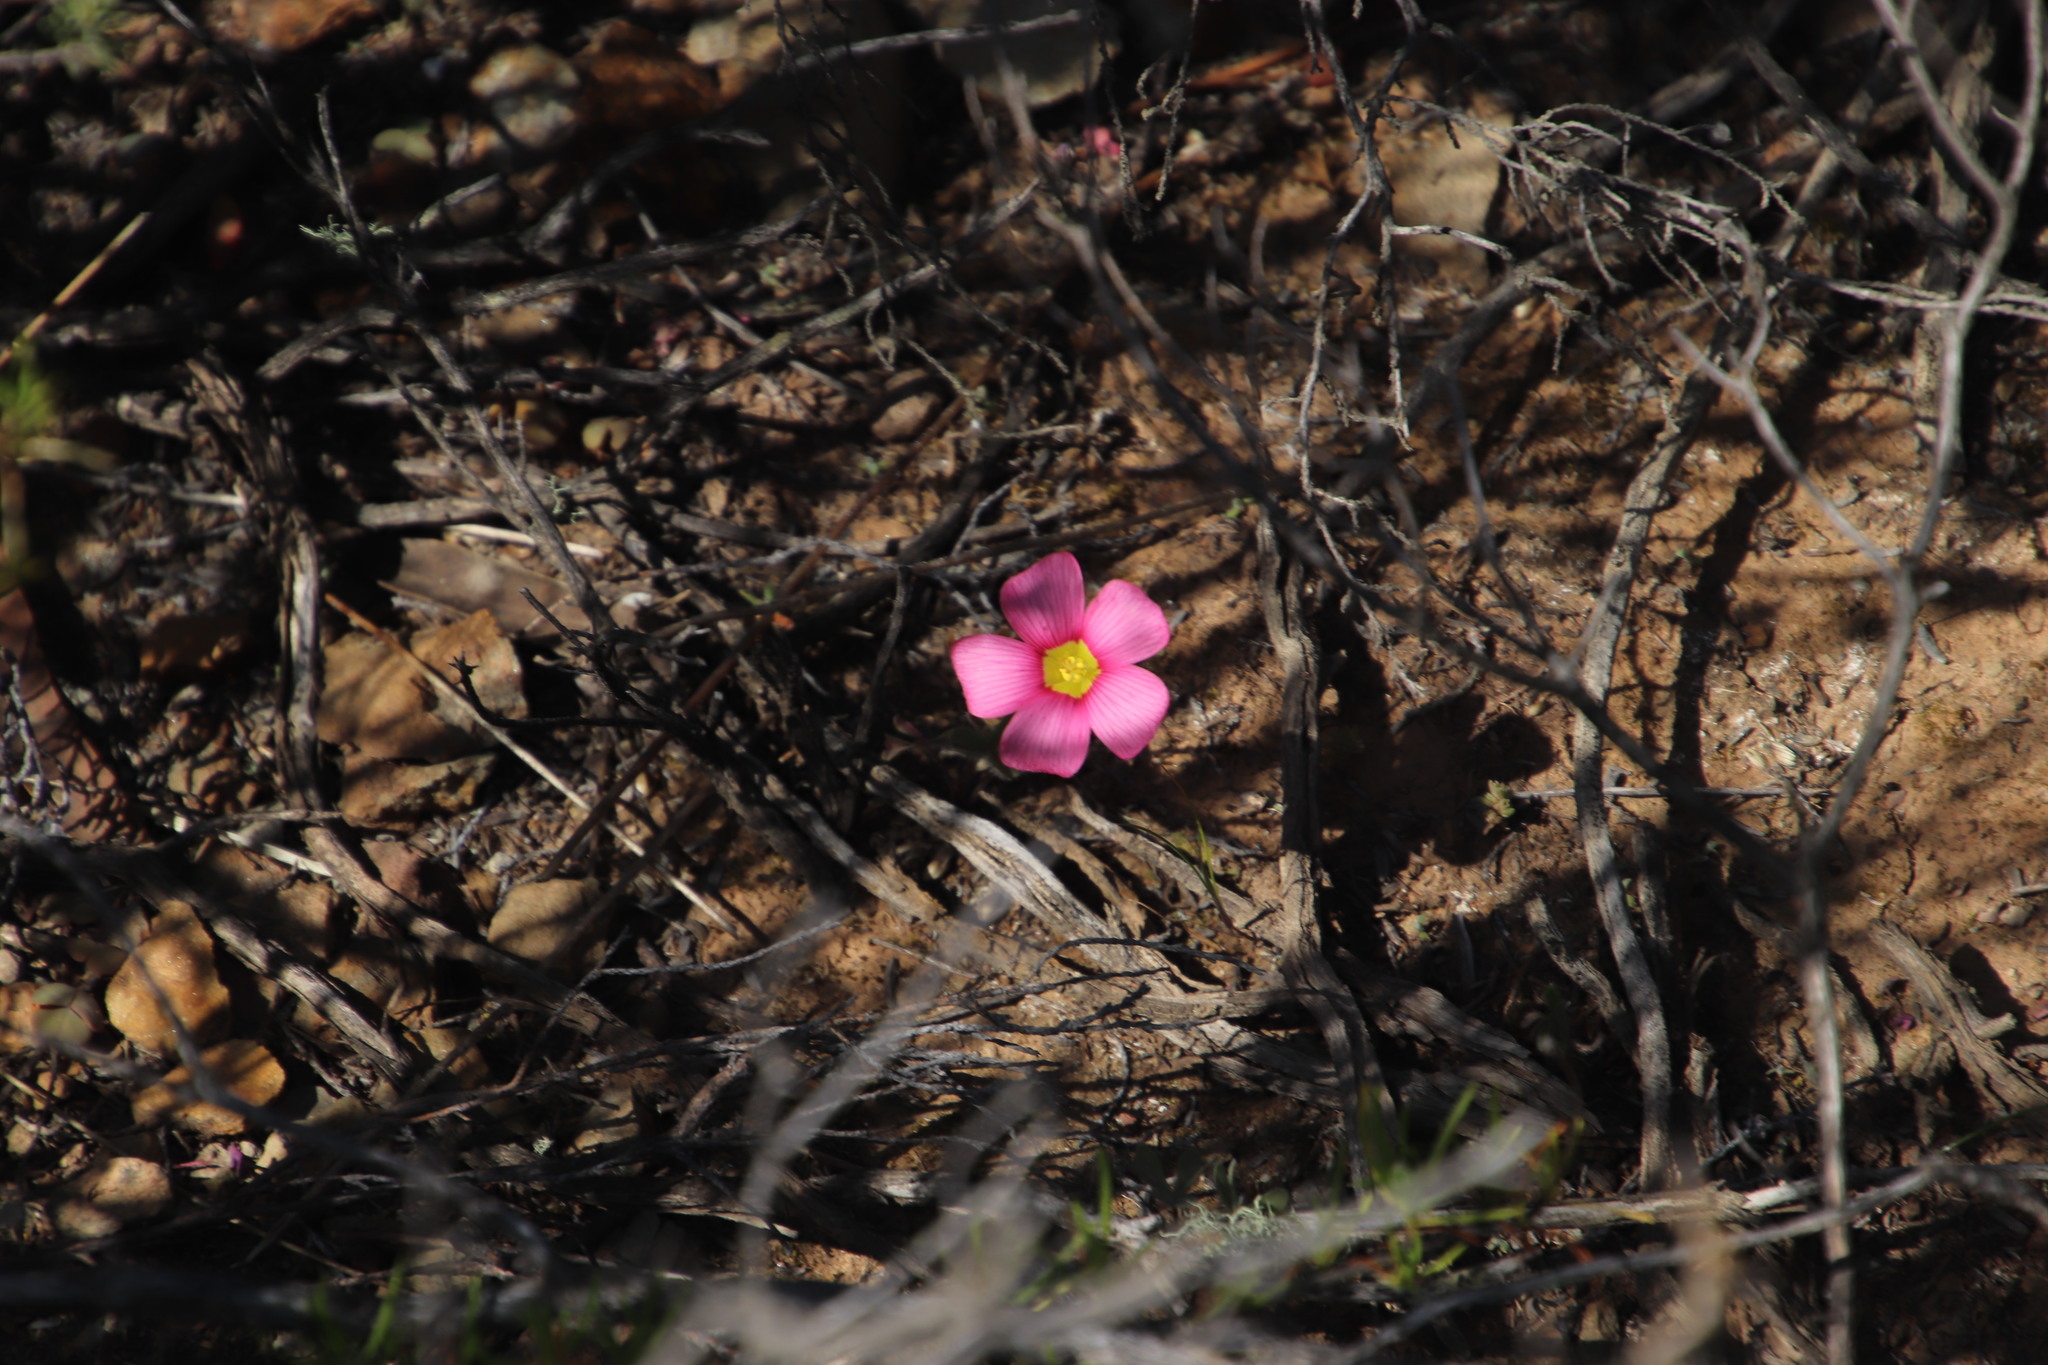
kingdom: Plantae
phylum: Tracheophyta
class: Magnoliopsida
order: Oxalidales
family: Oxalidaceae
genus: Oxalis
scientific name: Oxalis obtusa
